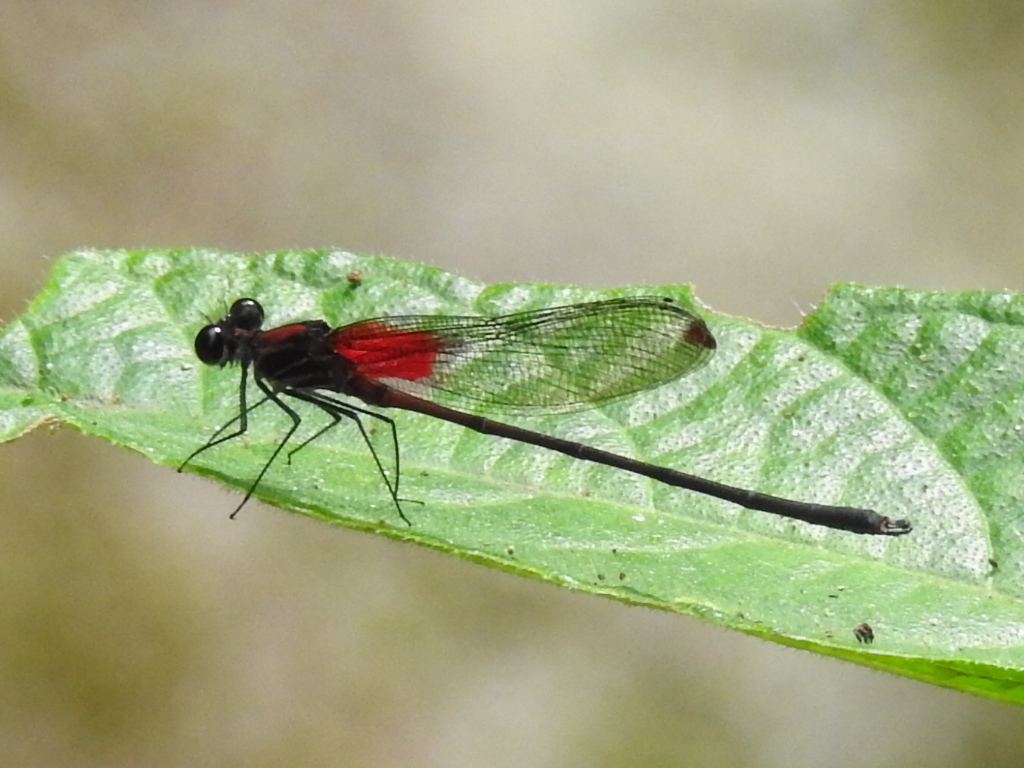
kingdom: Animalia
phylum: Arthropoda
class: Insecta
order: Odonata
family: Calopterygidae
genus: Hetaerina
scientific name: Hetaerina occisa
